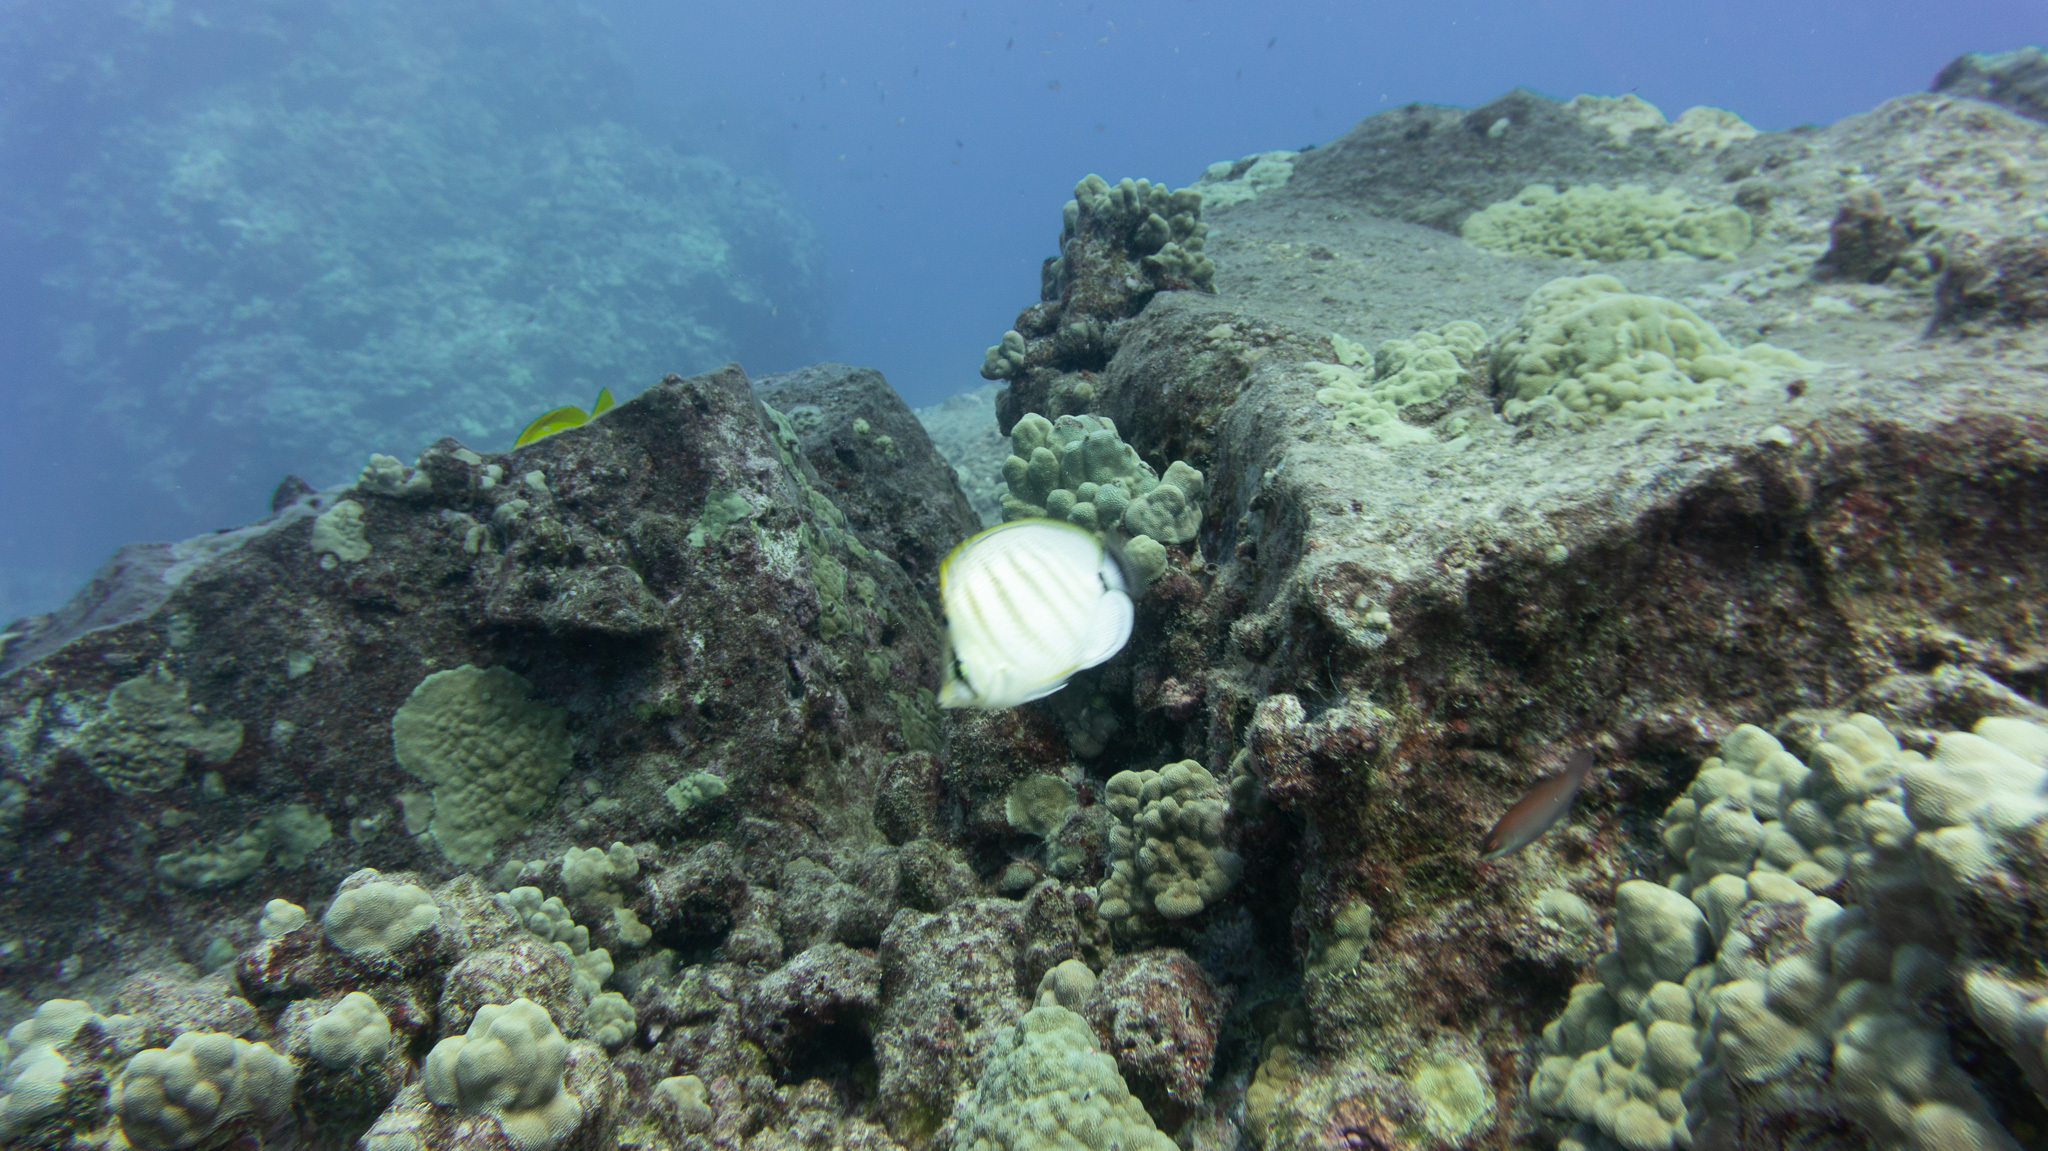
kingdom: Animalia
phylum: Chordata
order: Perciformes
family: Chaetodontidae
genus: Chaetodon
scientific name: Chaetodon multicinctus
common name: Multiband butterflyfish
